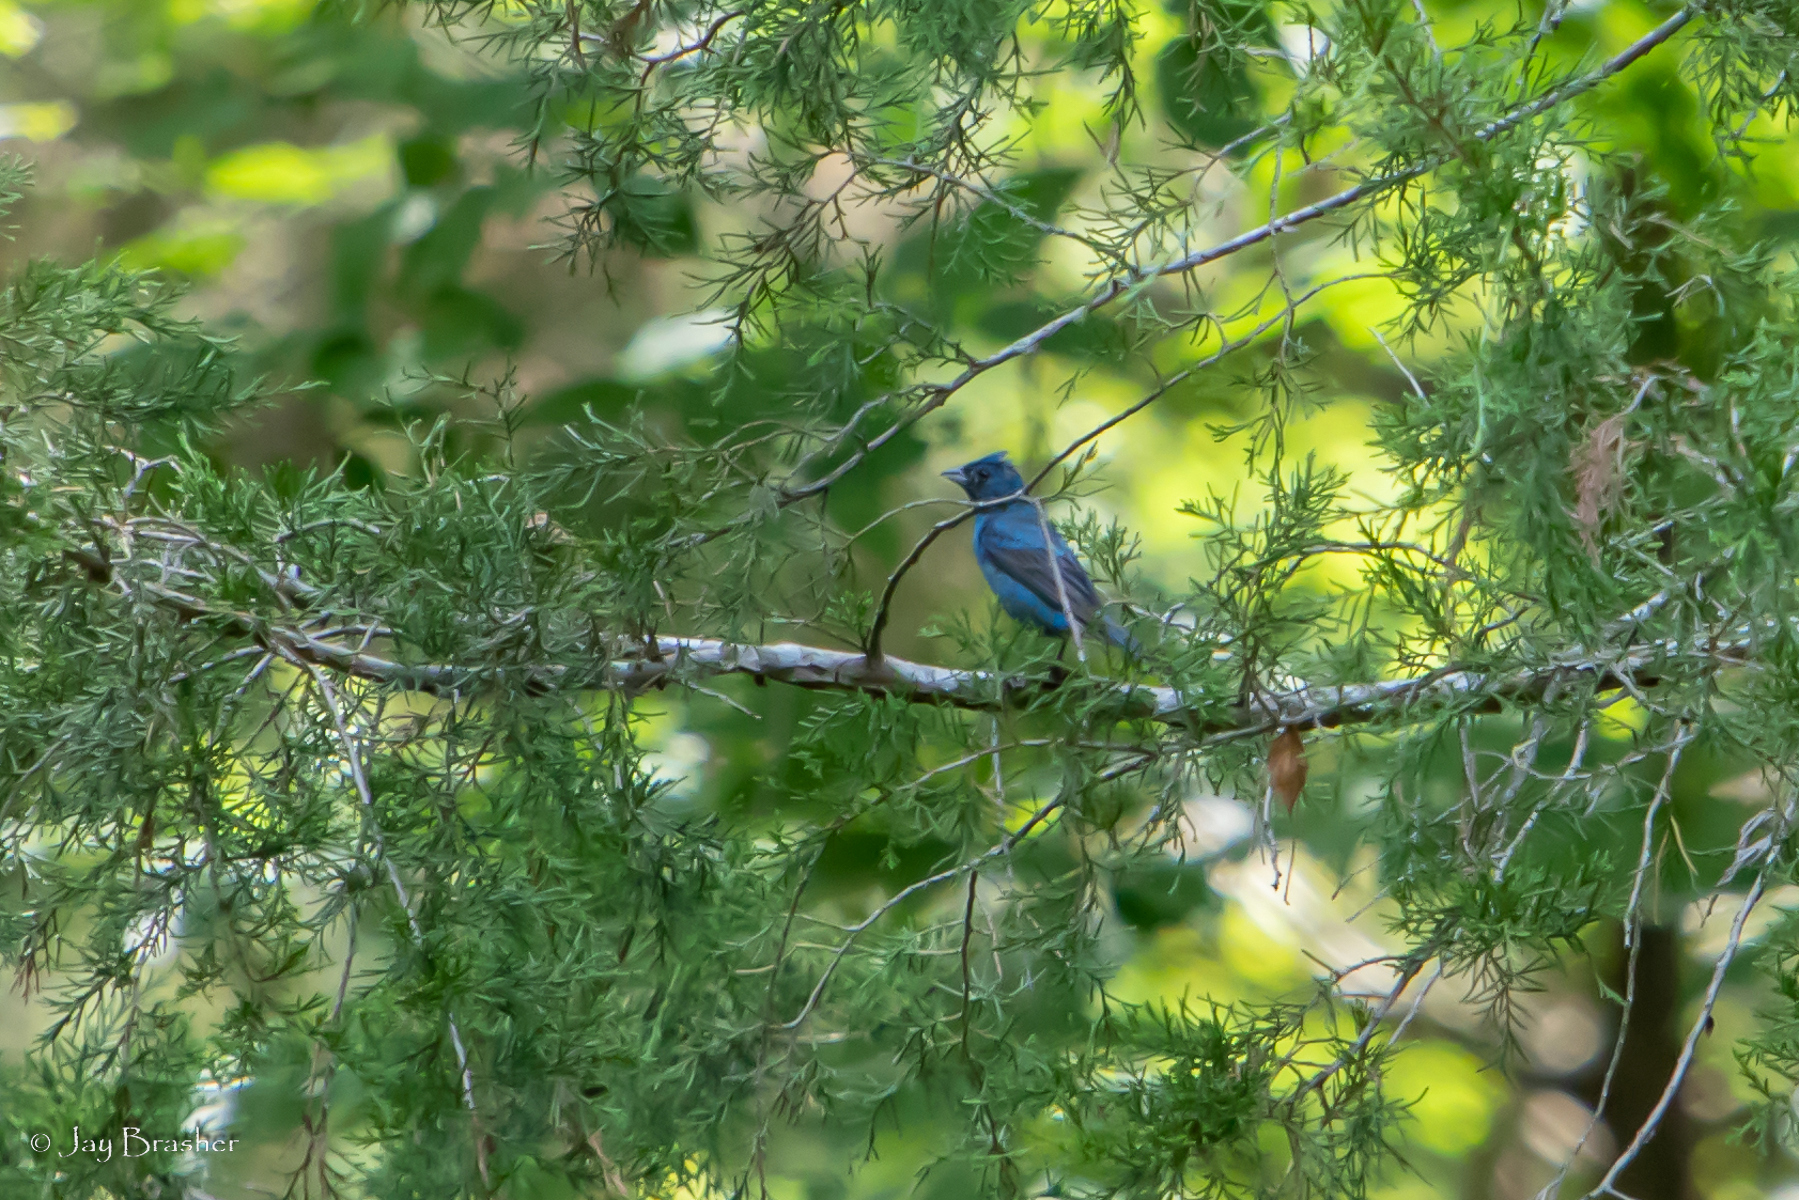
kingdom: Animalia
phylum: Chordata
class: Aves
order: Passeriformes
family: Cardinalidae
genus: Passerina
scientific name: Passerina cyanea
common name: Indigo bunting
